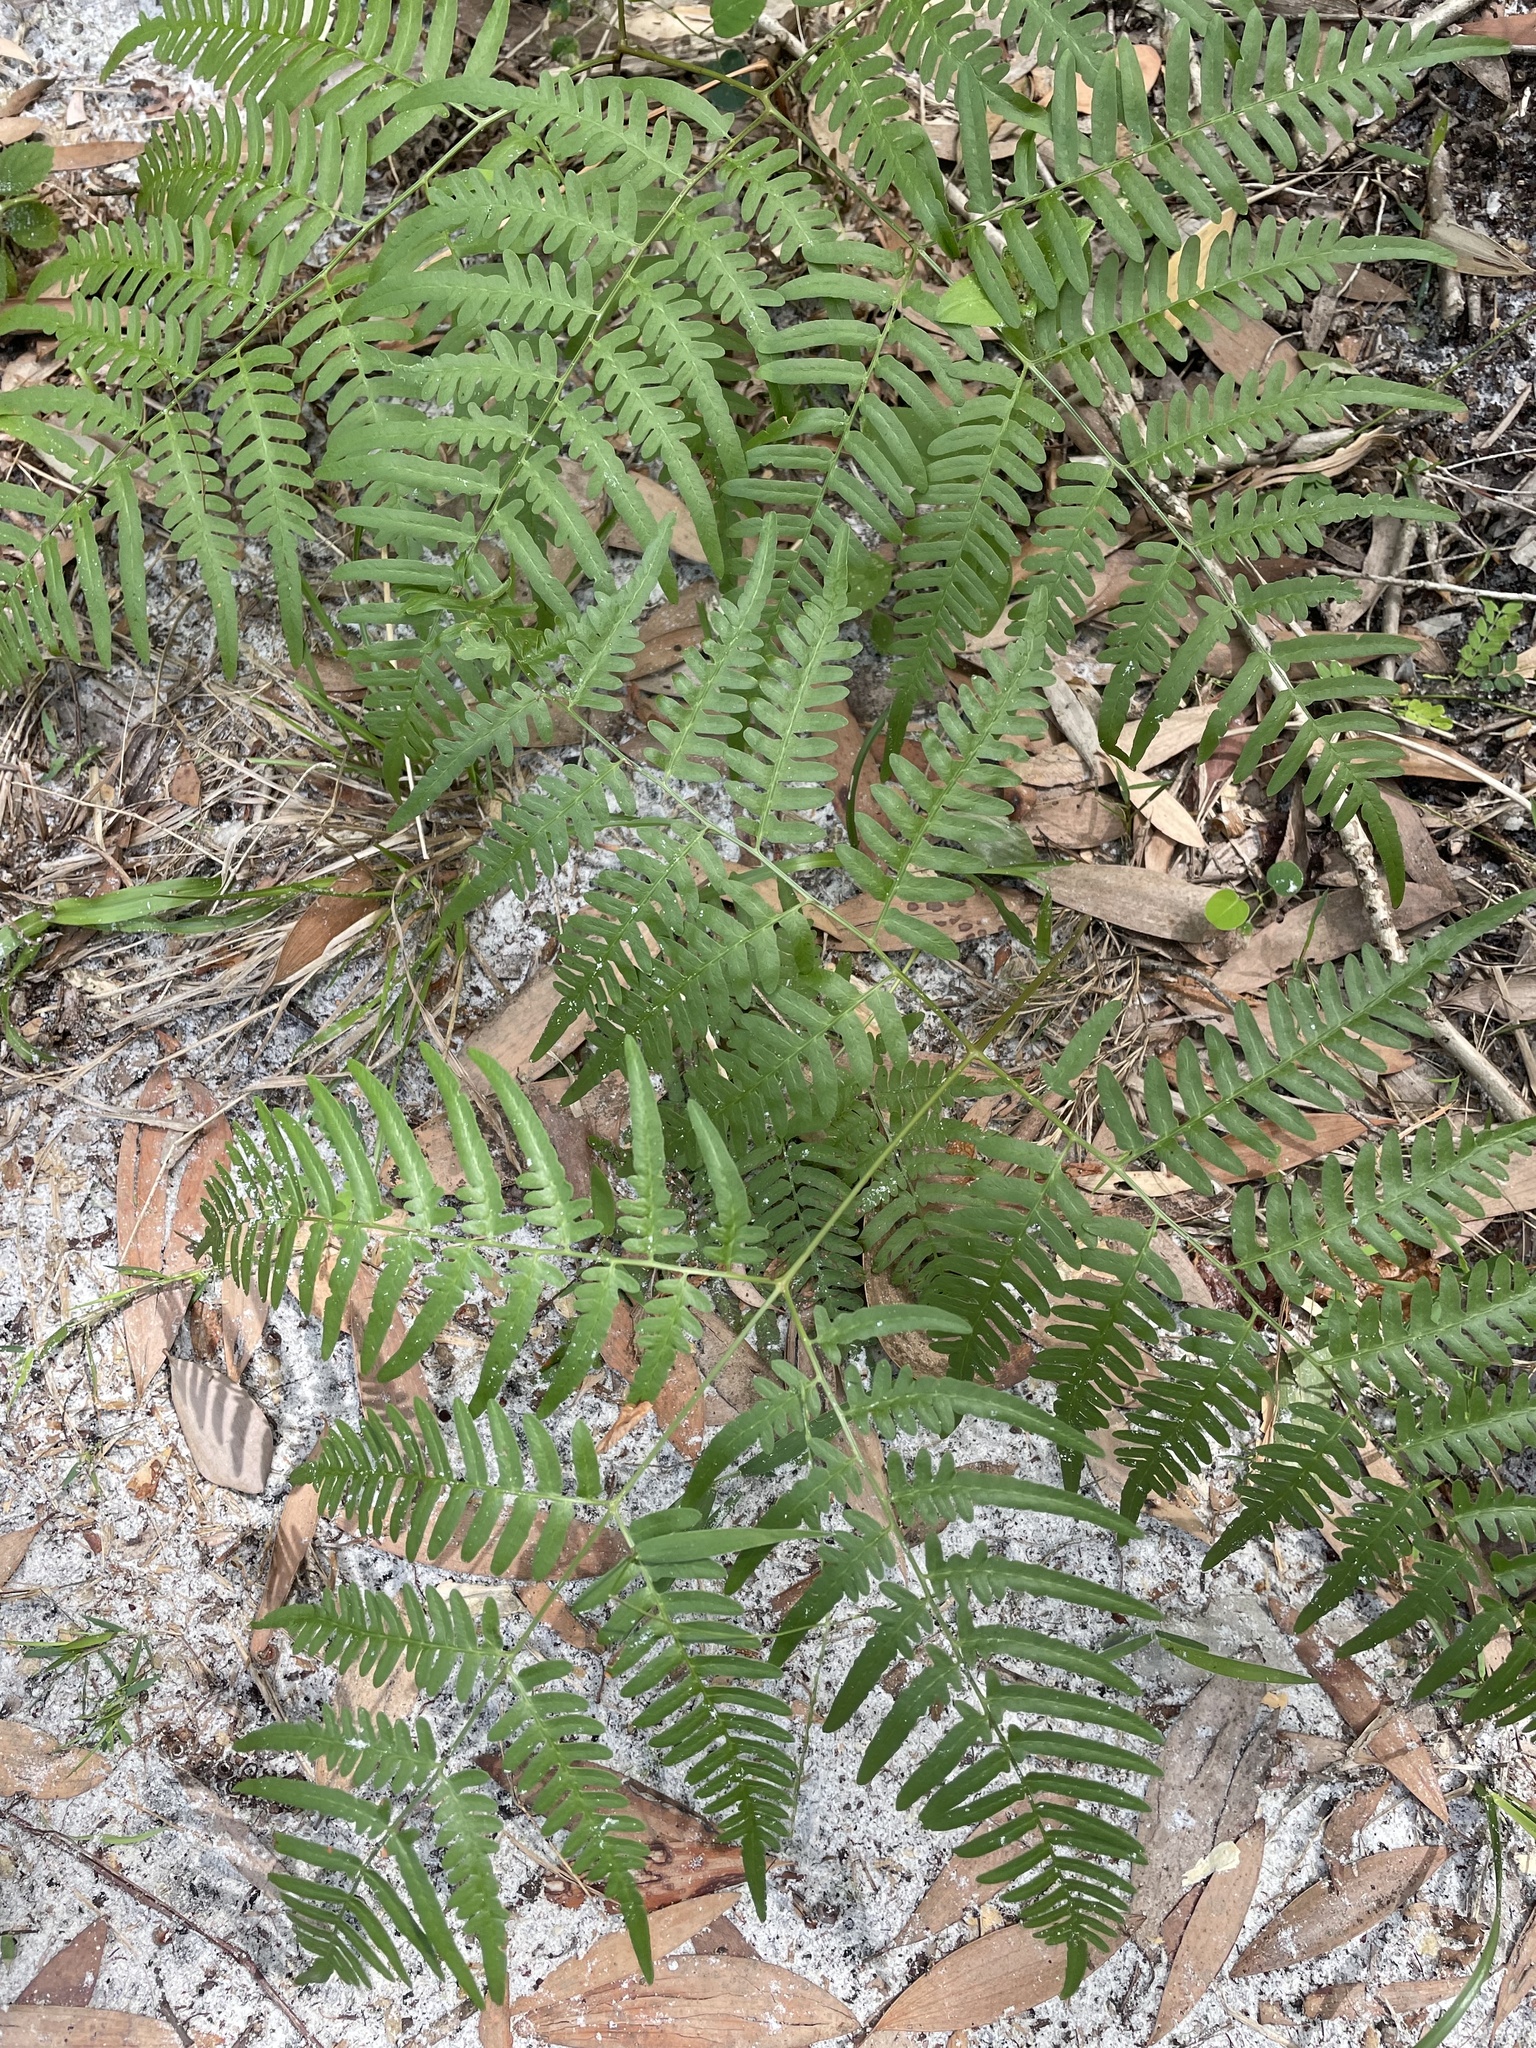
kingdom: Plantae
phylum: Tracheophyta
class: Polypodiopsida
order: Polypodiales
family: Dennstaedtiaceae
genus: Pteridium
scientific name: Pteridium aquilinum
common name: Bracken
